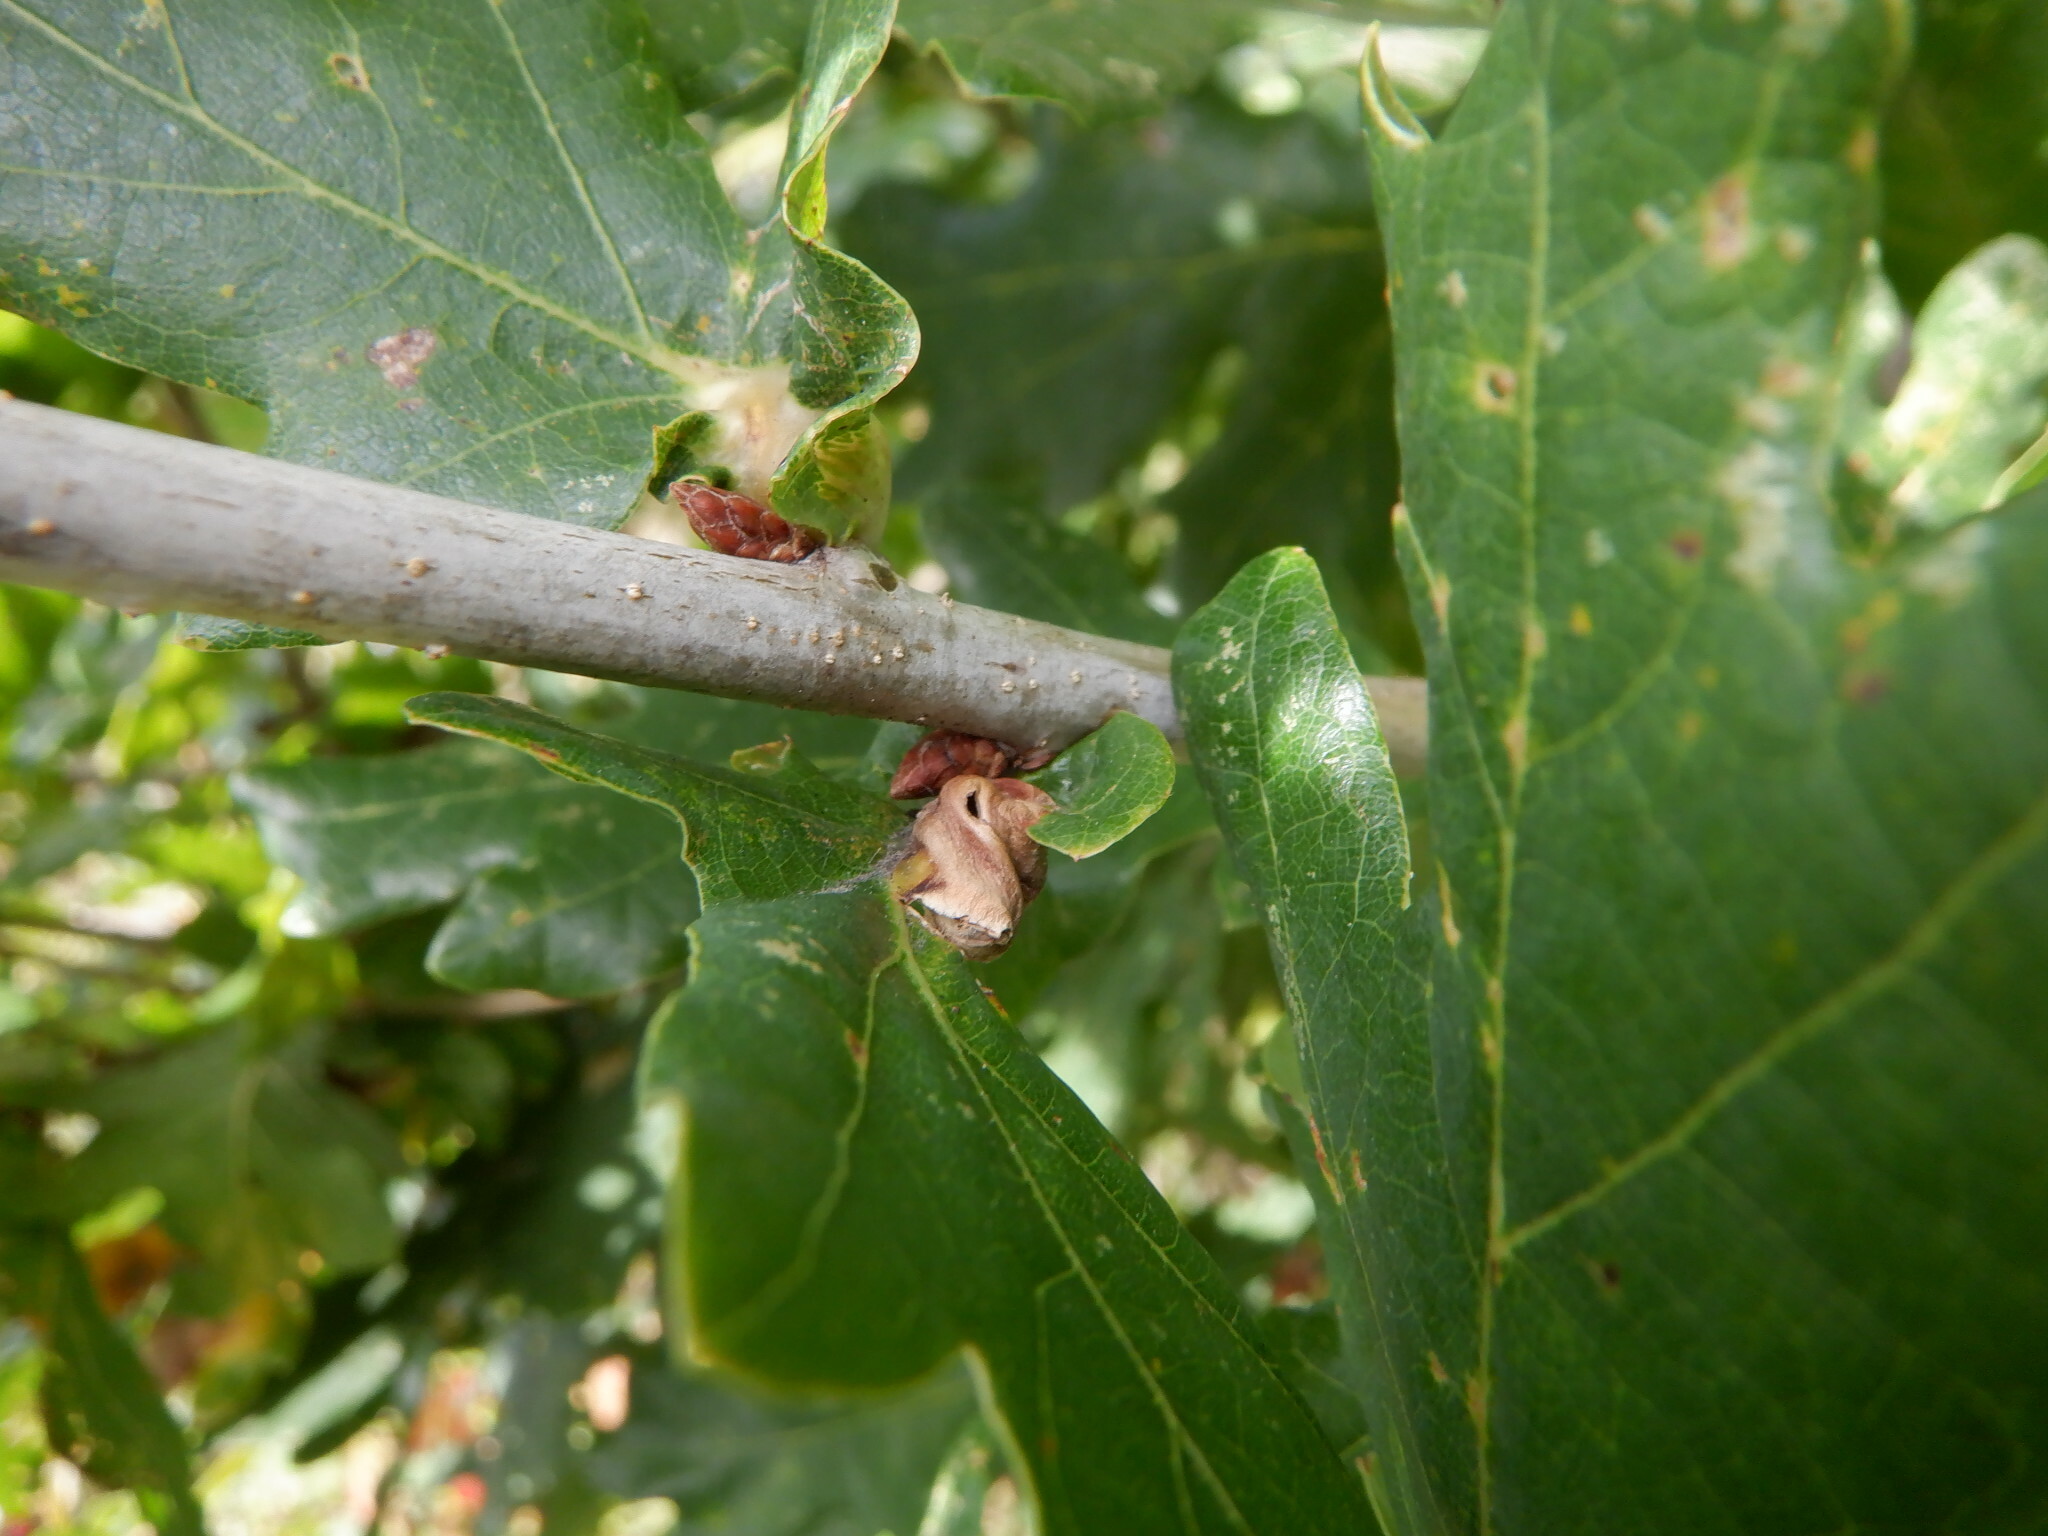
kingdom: Animalia
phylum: Arthropoda
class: Insecta
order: Hymenoptera
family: Cynipidae
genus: Andricus
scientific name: Andricus curvator
